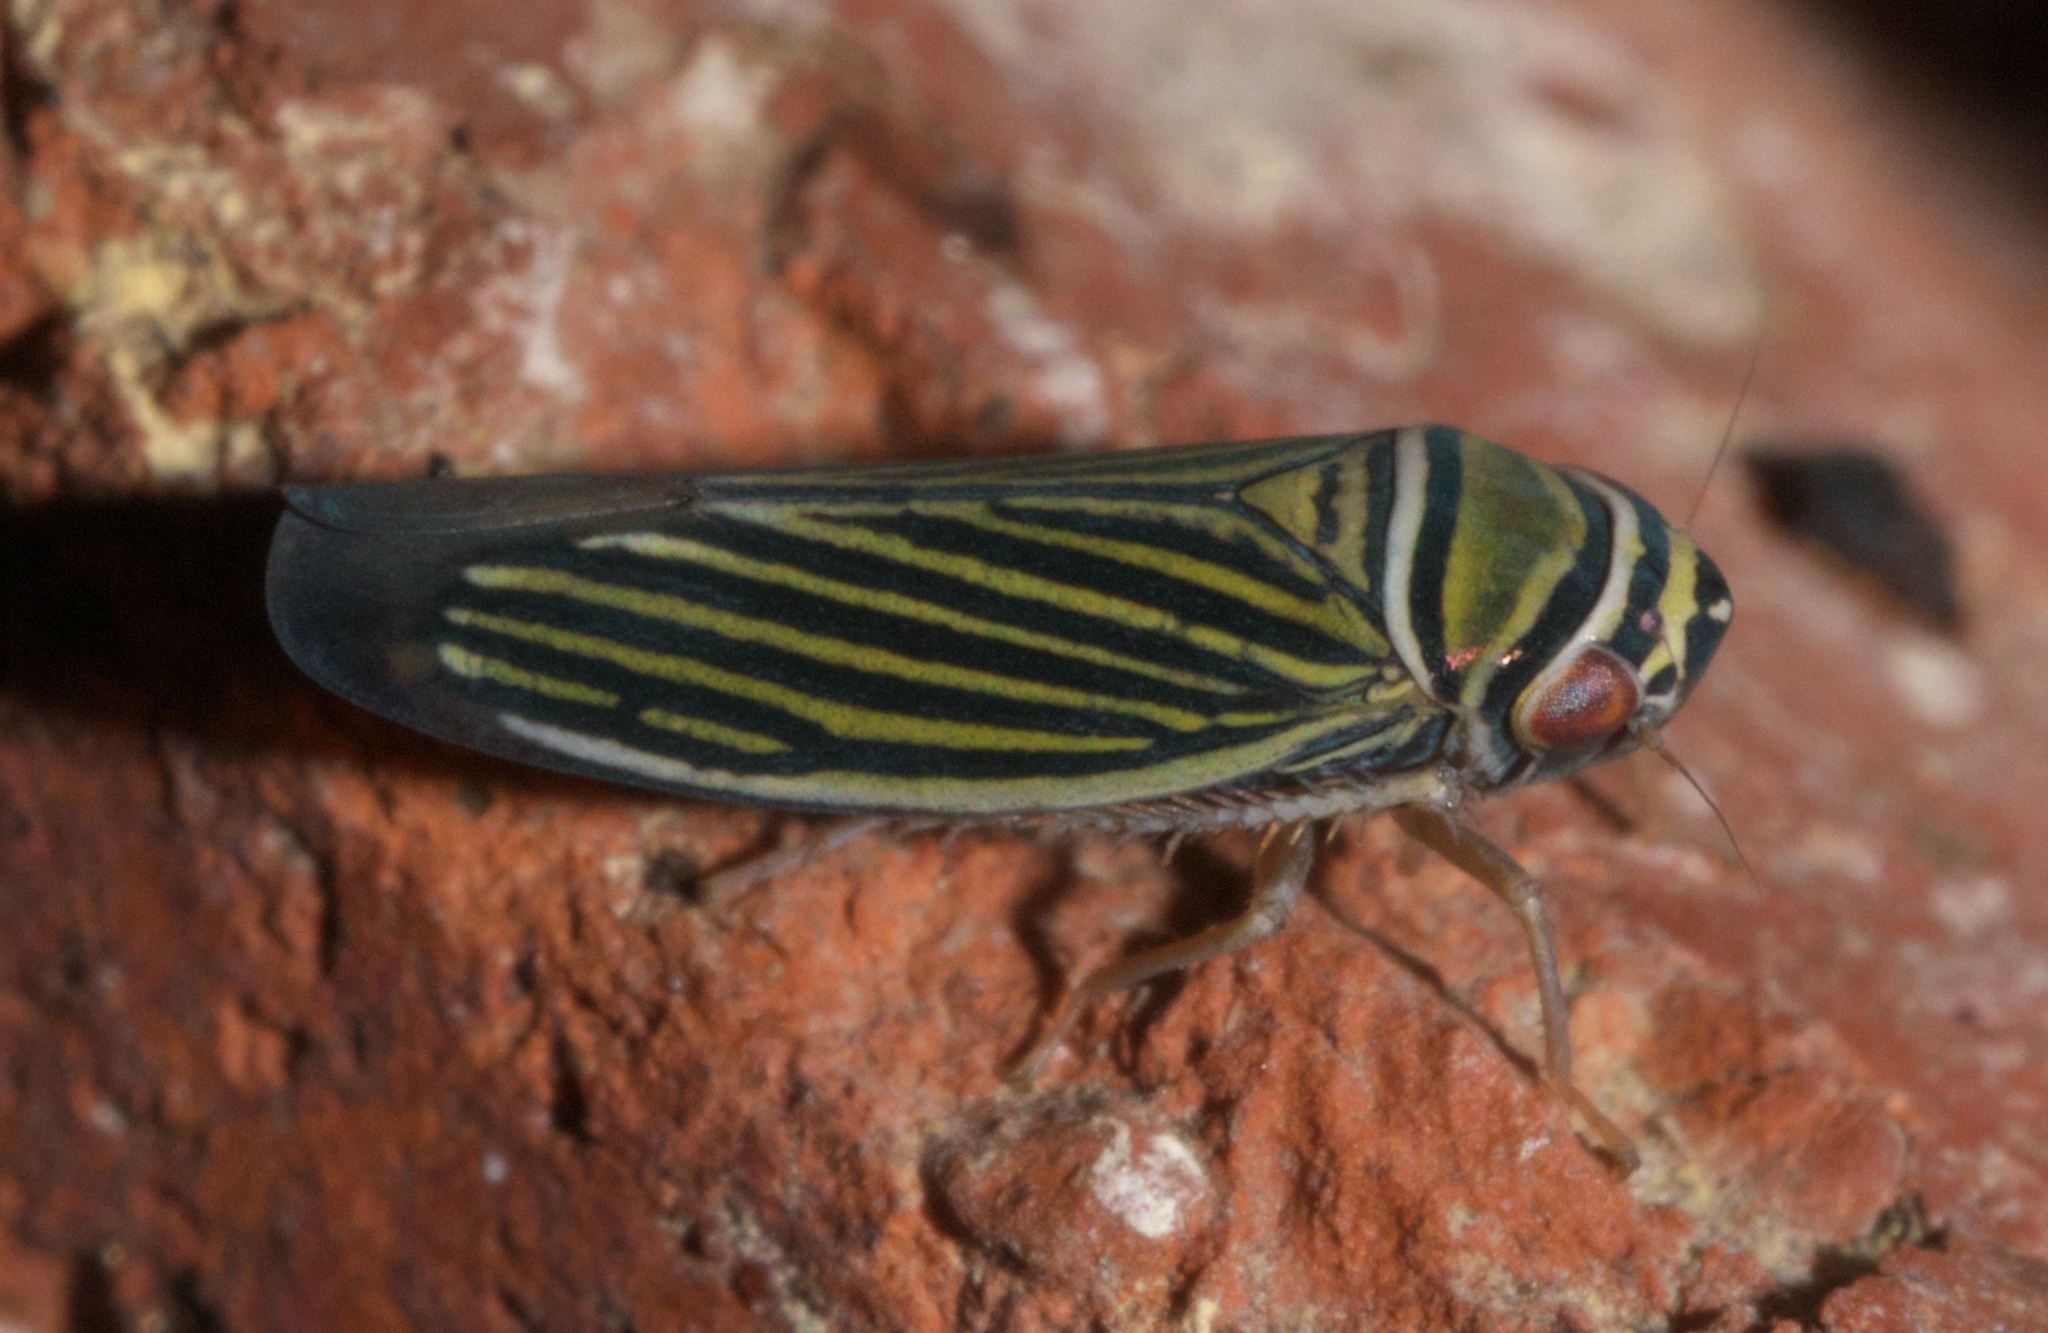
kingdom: Animalia
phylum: Arthropoda
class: Insecta
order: Hemiptera
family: Cicadellidae
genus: Tylozygus
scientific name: Tylozygus bifidus
